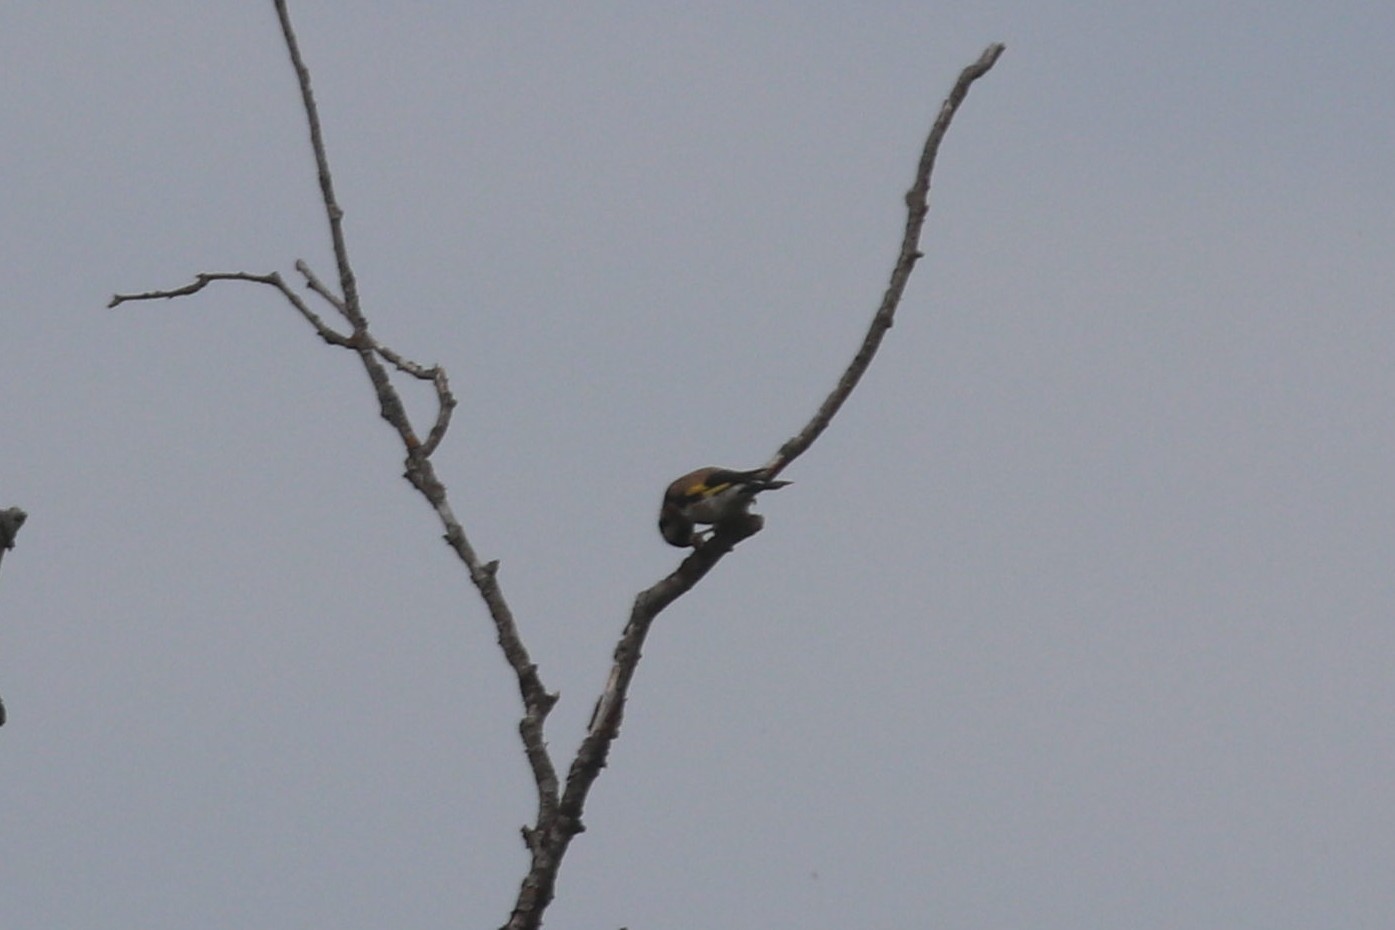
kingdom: Animalia
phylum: Chordata
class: Aves
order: Passeriformes
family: Fringillidae
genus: Carduelis
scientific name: Carduelis carduelis
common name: European goldfinch
